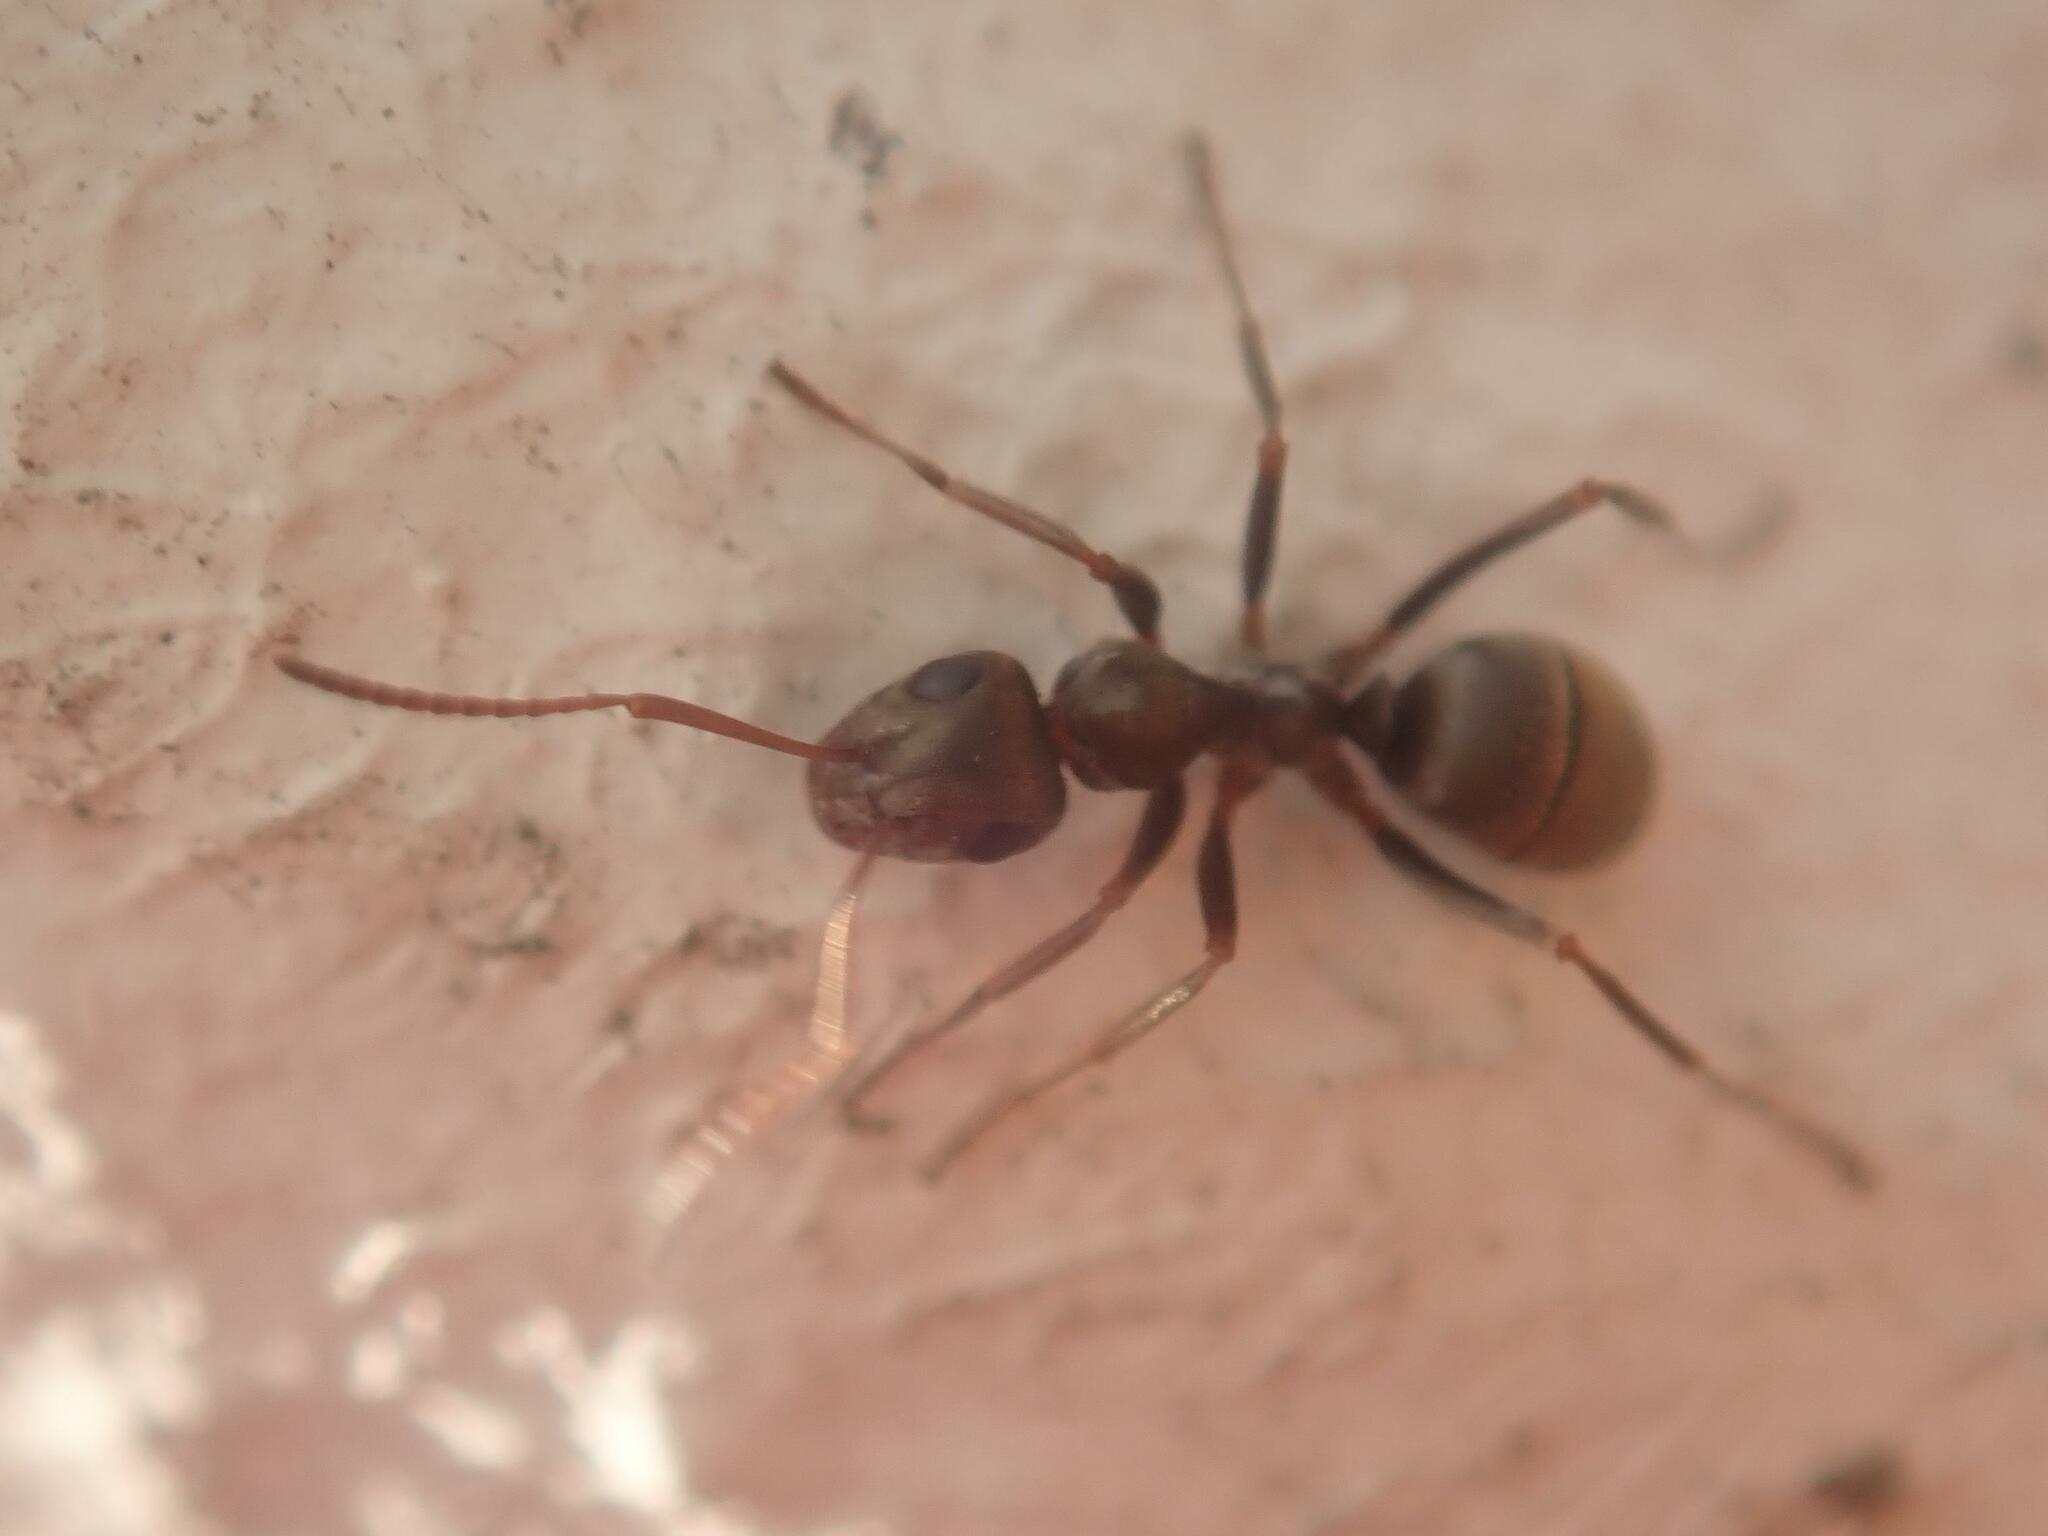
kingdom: Animalia
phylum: Arthropoda
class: Insecta
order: Hymenoptera
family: Formicidae
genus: Formica
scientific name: Formica cinerea
